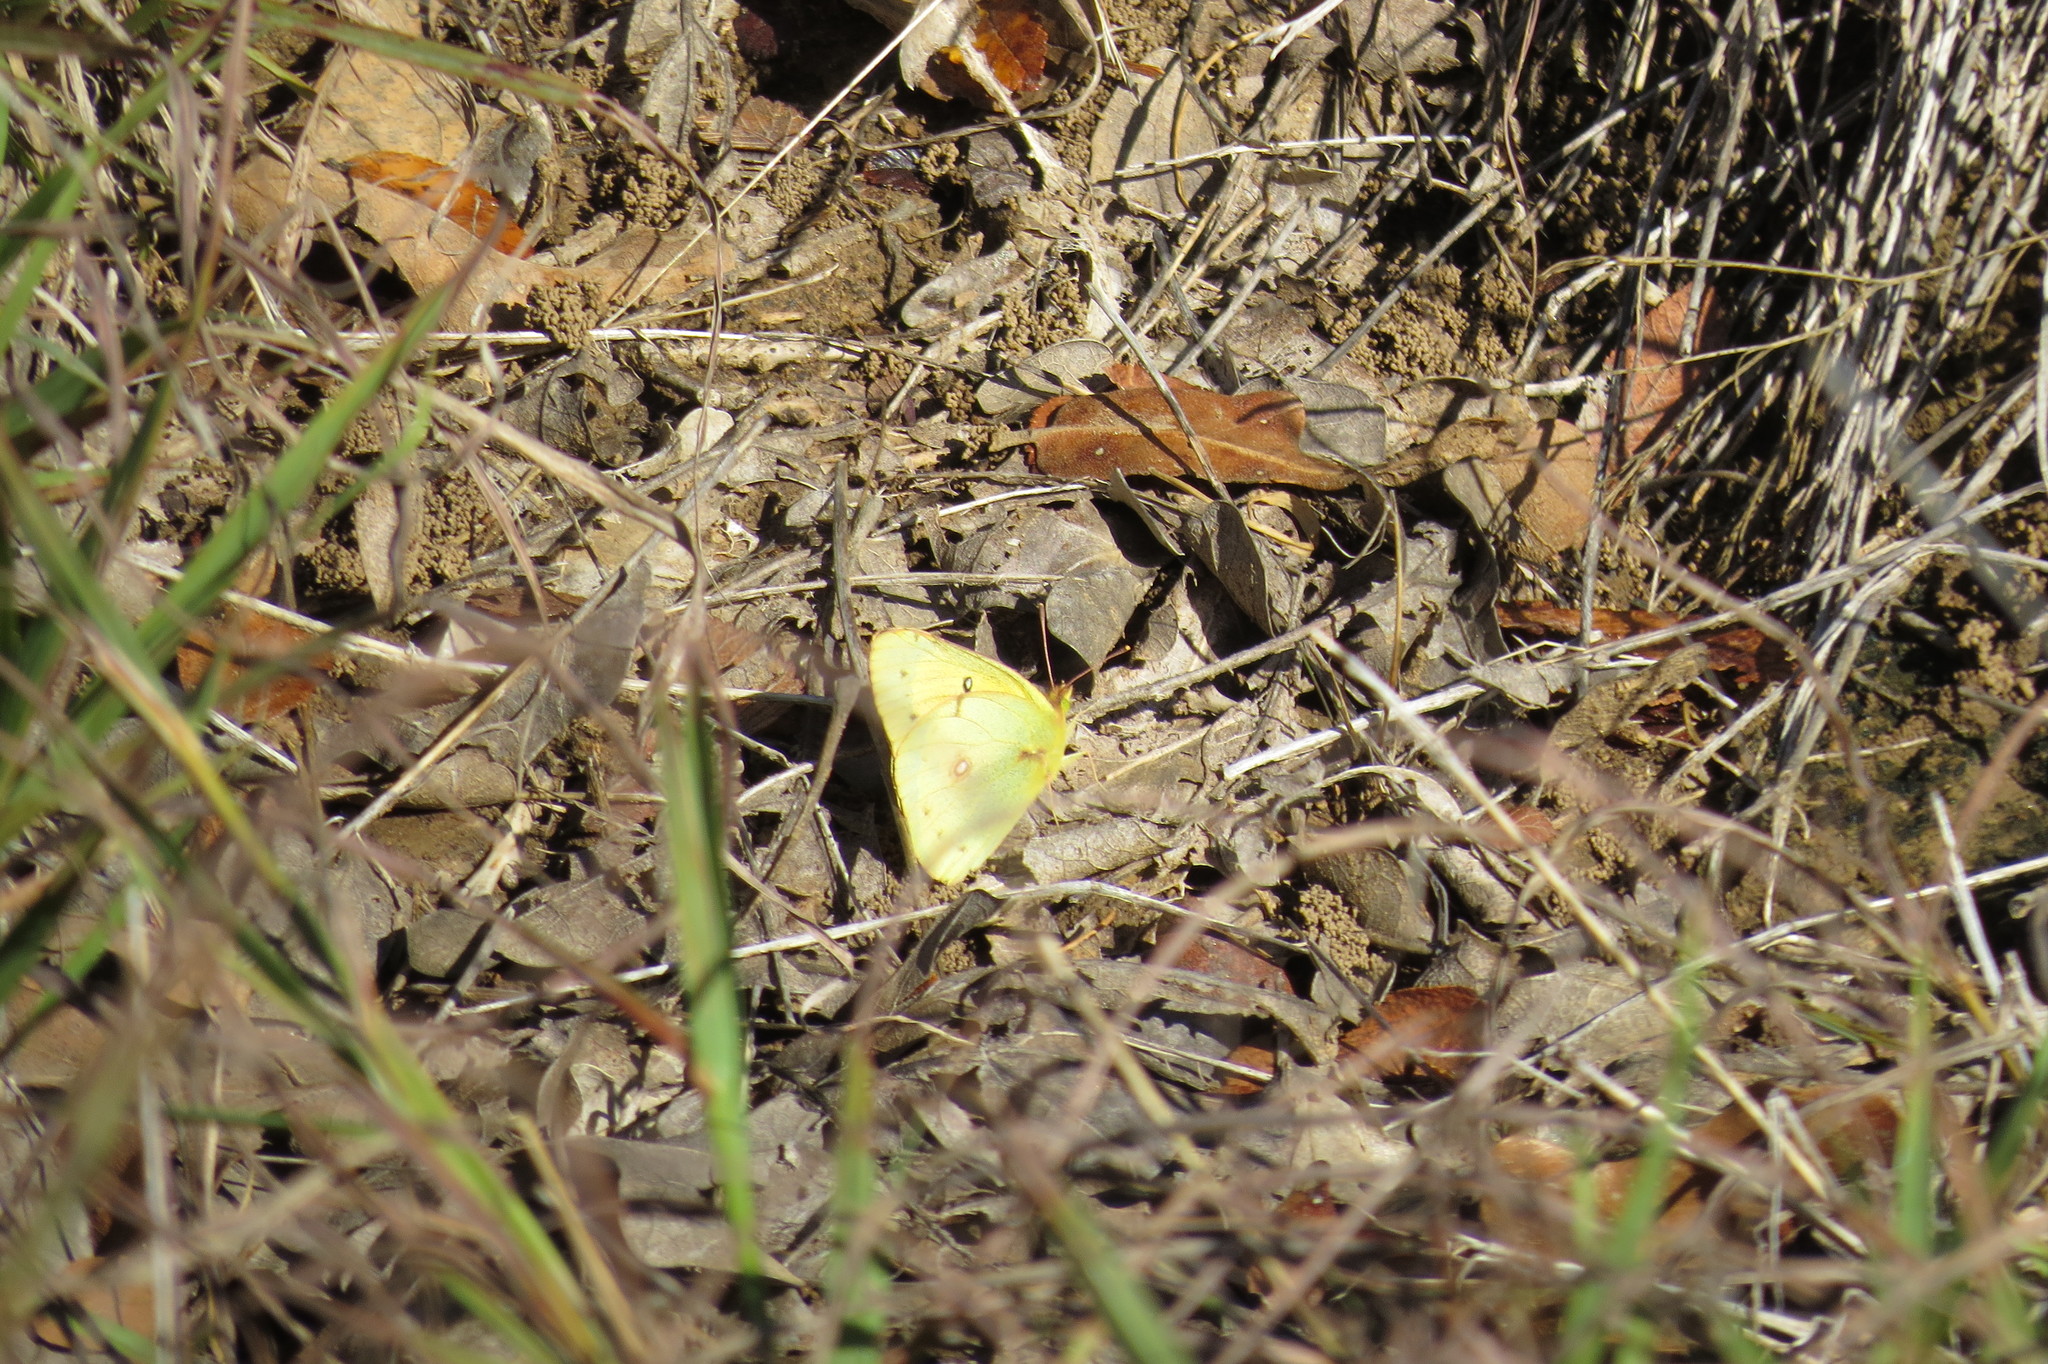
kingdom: Animalia
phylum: Arthropoda
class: Insecta
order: Lepidoptera
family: Pieridae
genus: Colias
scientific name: Colias eurytheme
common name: Alfalfa butterfly
